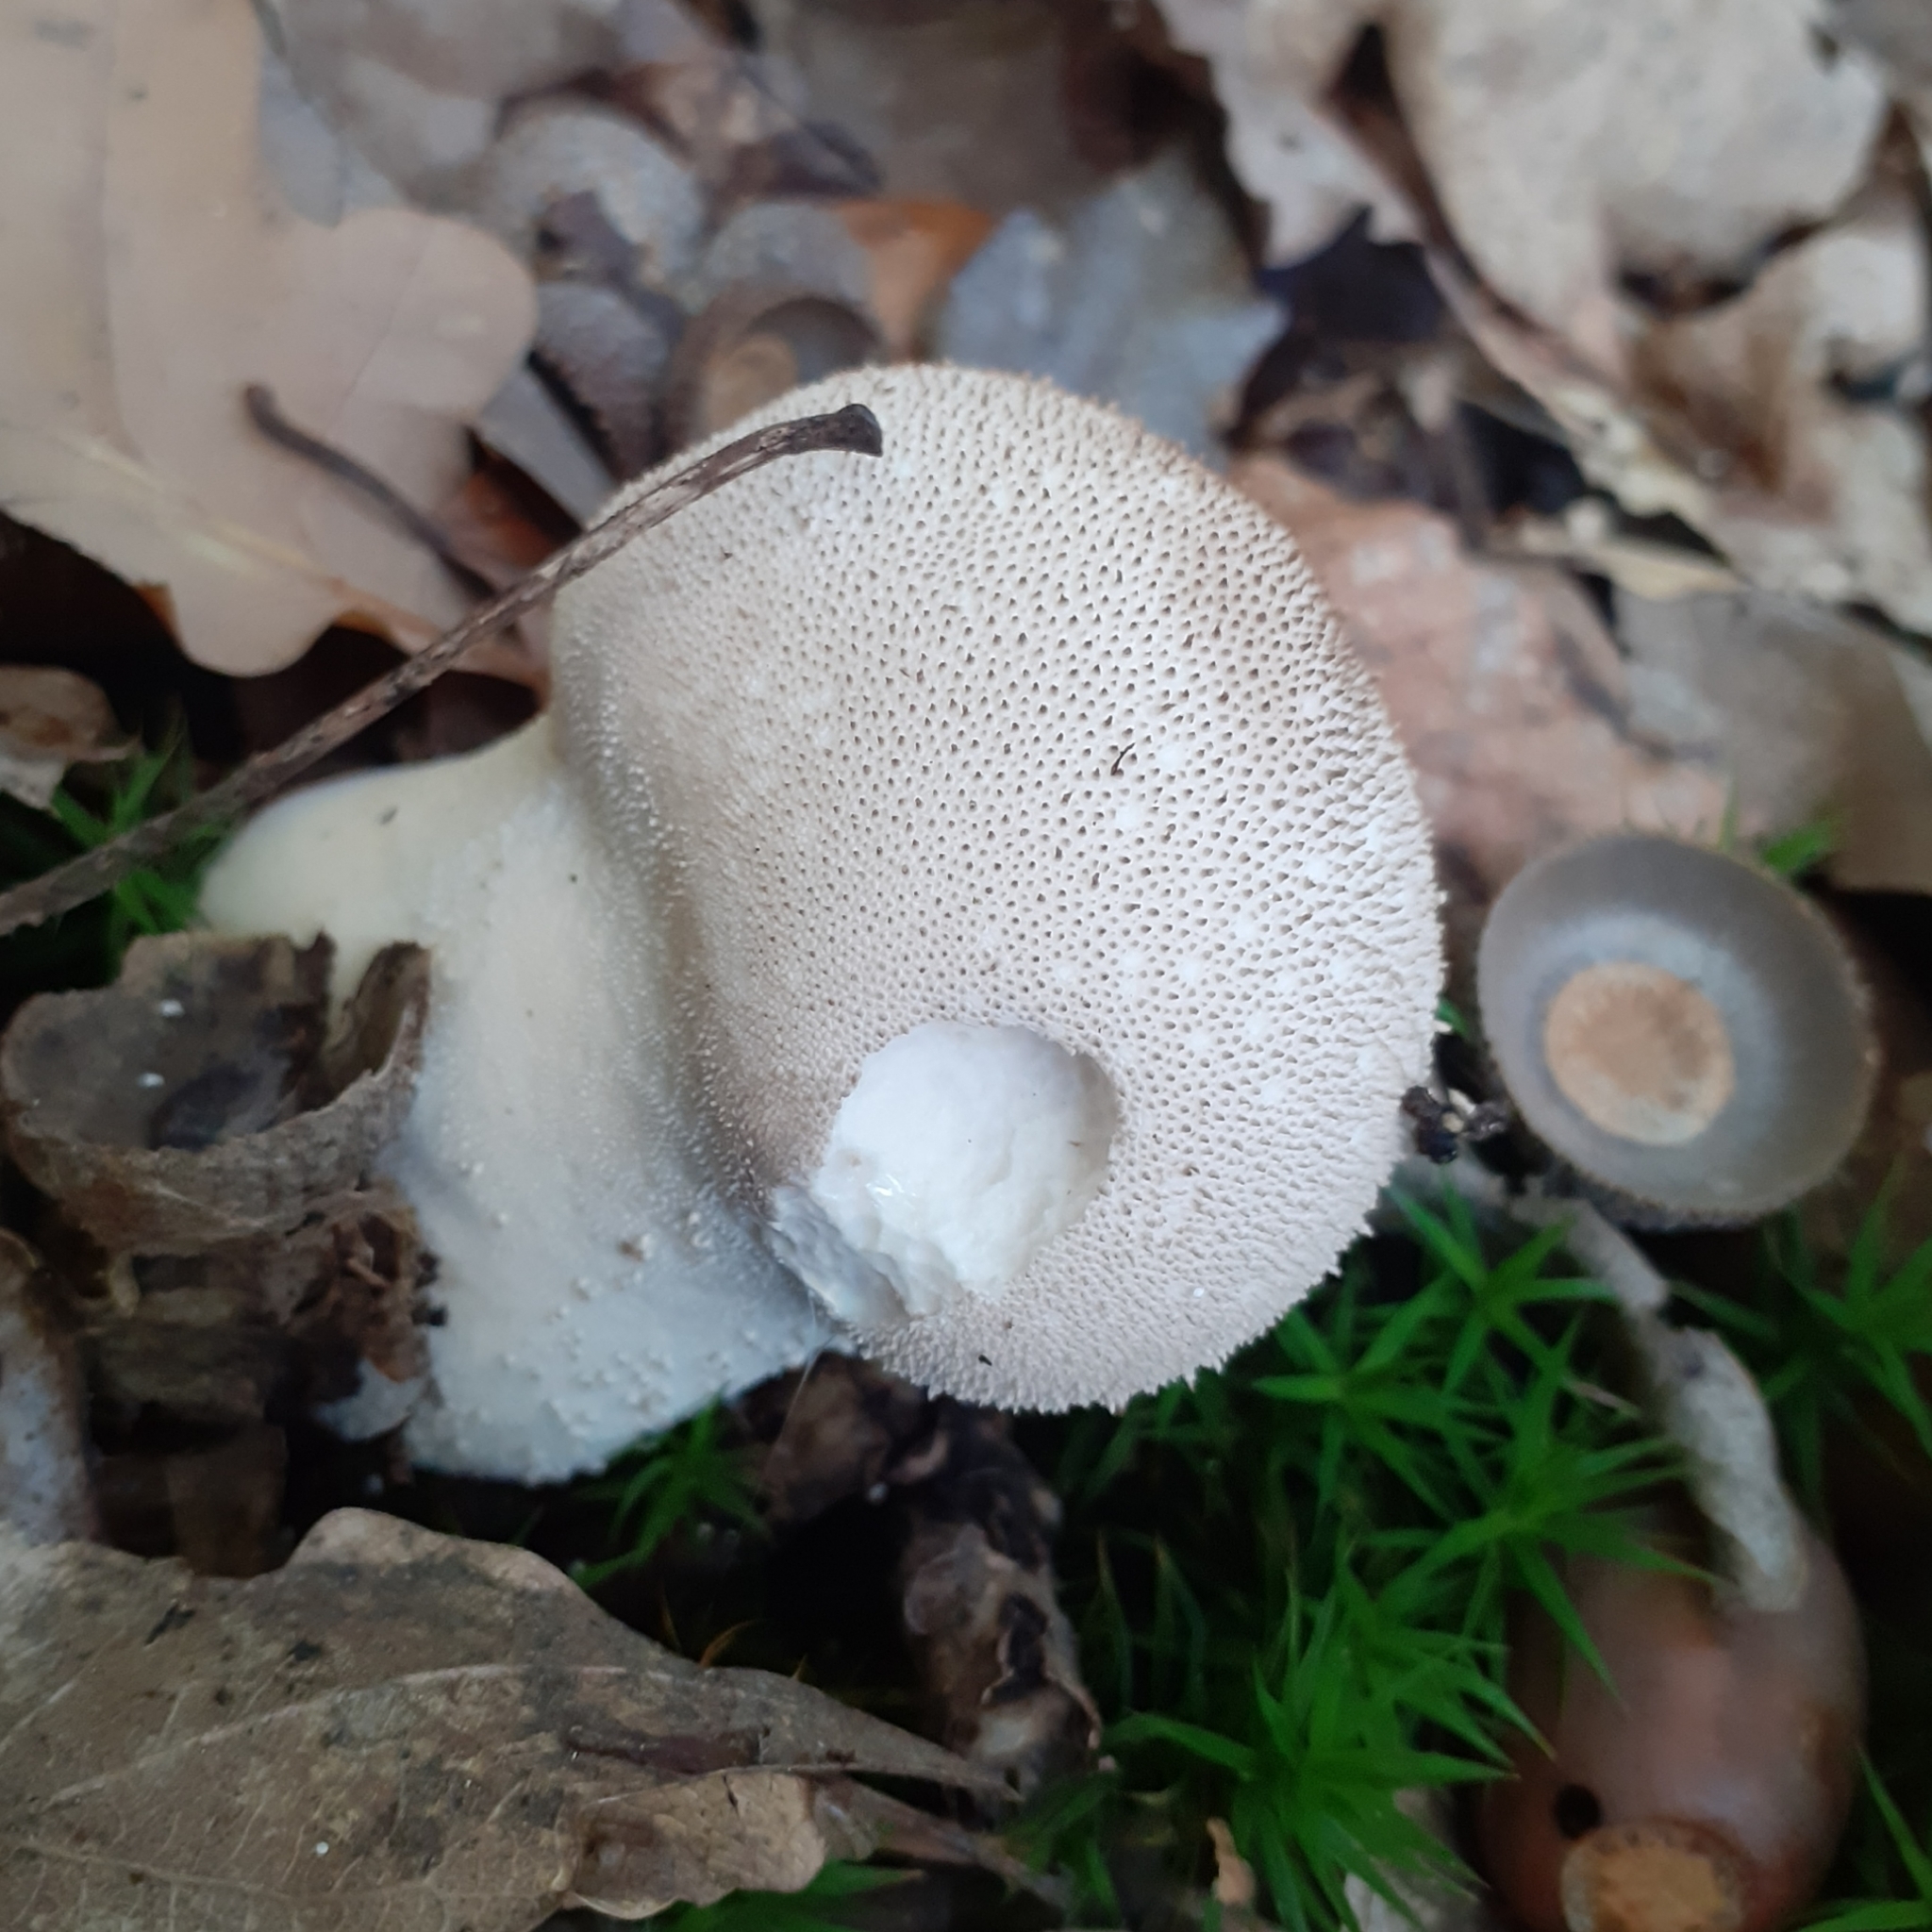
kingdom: Fungi
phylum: Basidiomycota
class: Agaricomycetes
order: Agaricales
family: Lycoperdaceae
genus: Lycoperdon
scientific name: Lycoperdon perlatum
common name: Common puffball
